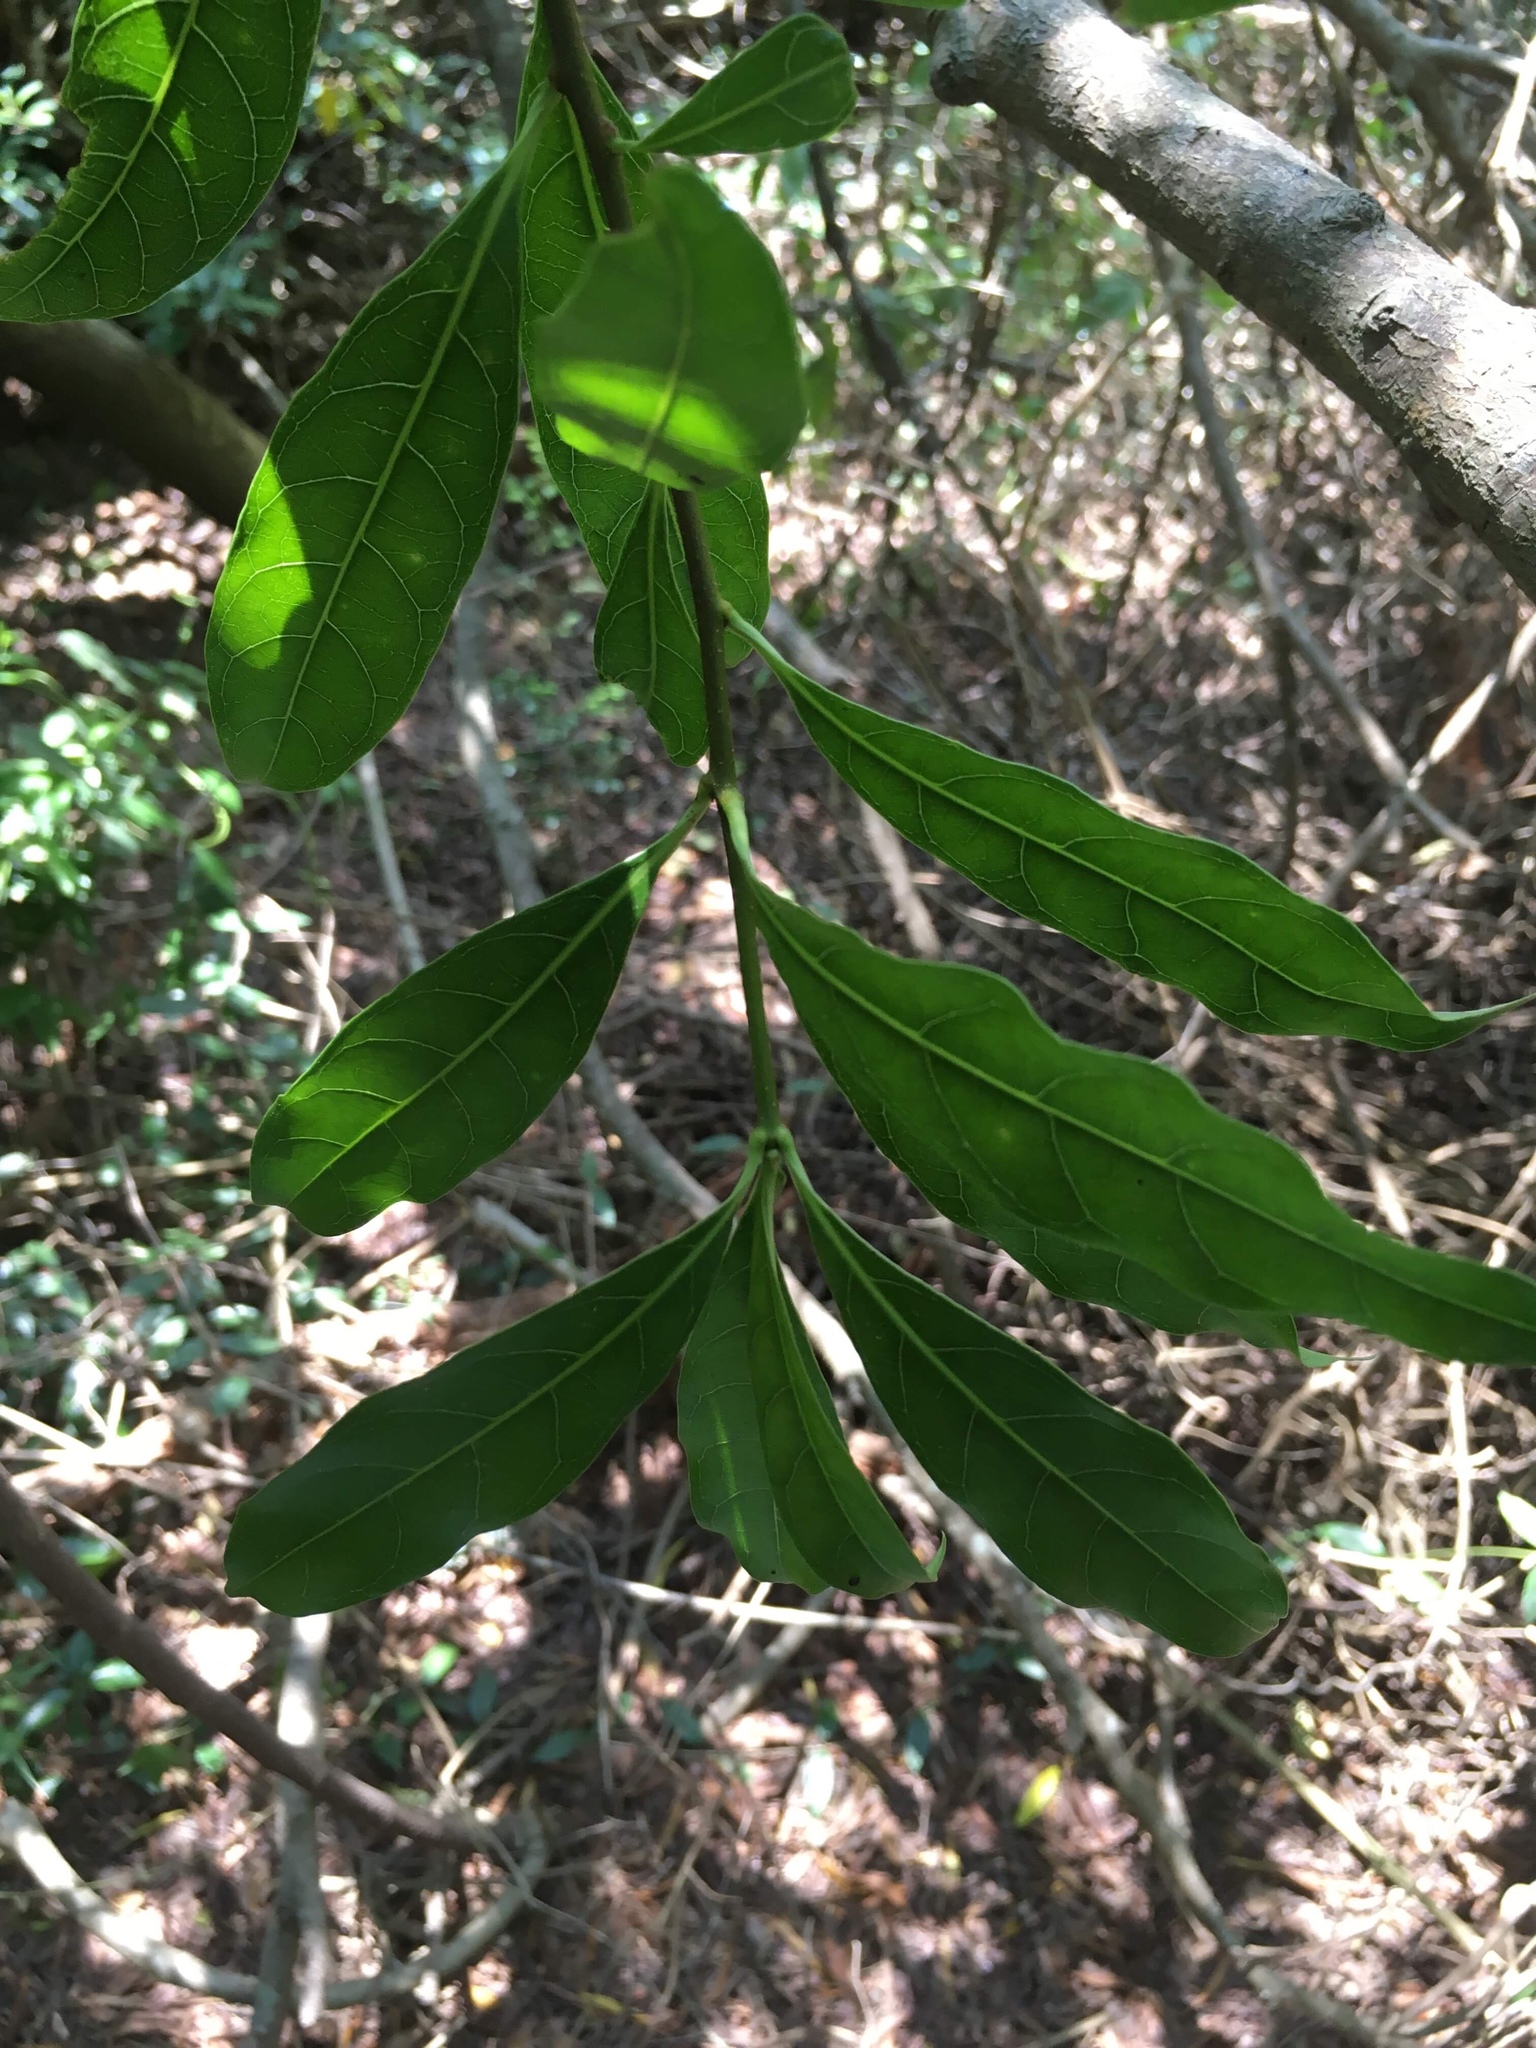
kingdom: Plantae
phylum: Tracheophyta
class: Magnoliopsida
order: Apiales
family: Pittosporaceae
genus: Pittosporum
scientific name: Pittosporum pentandrum
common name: Taiwanese cheesewood
